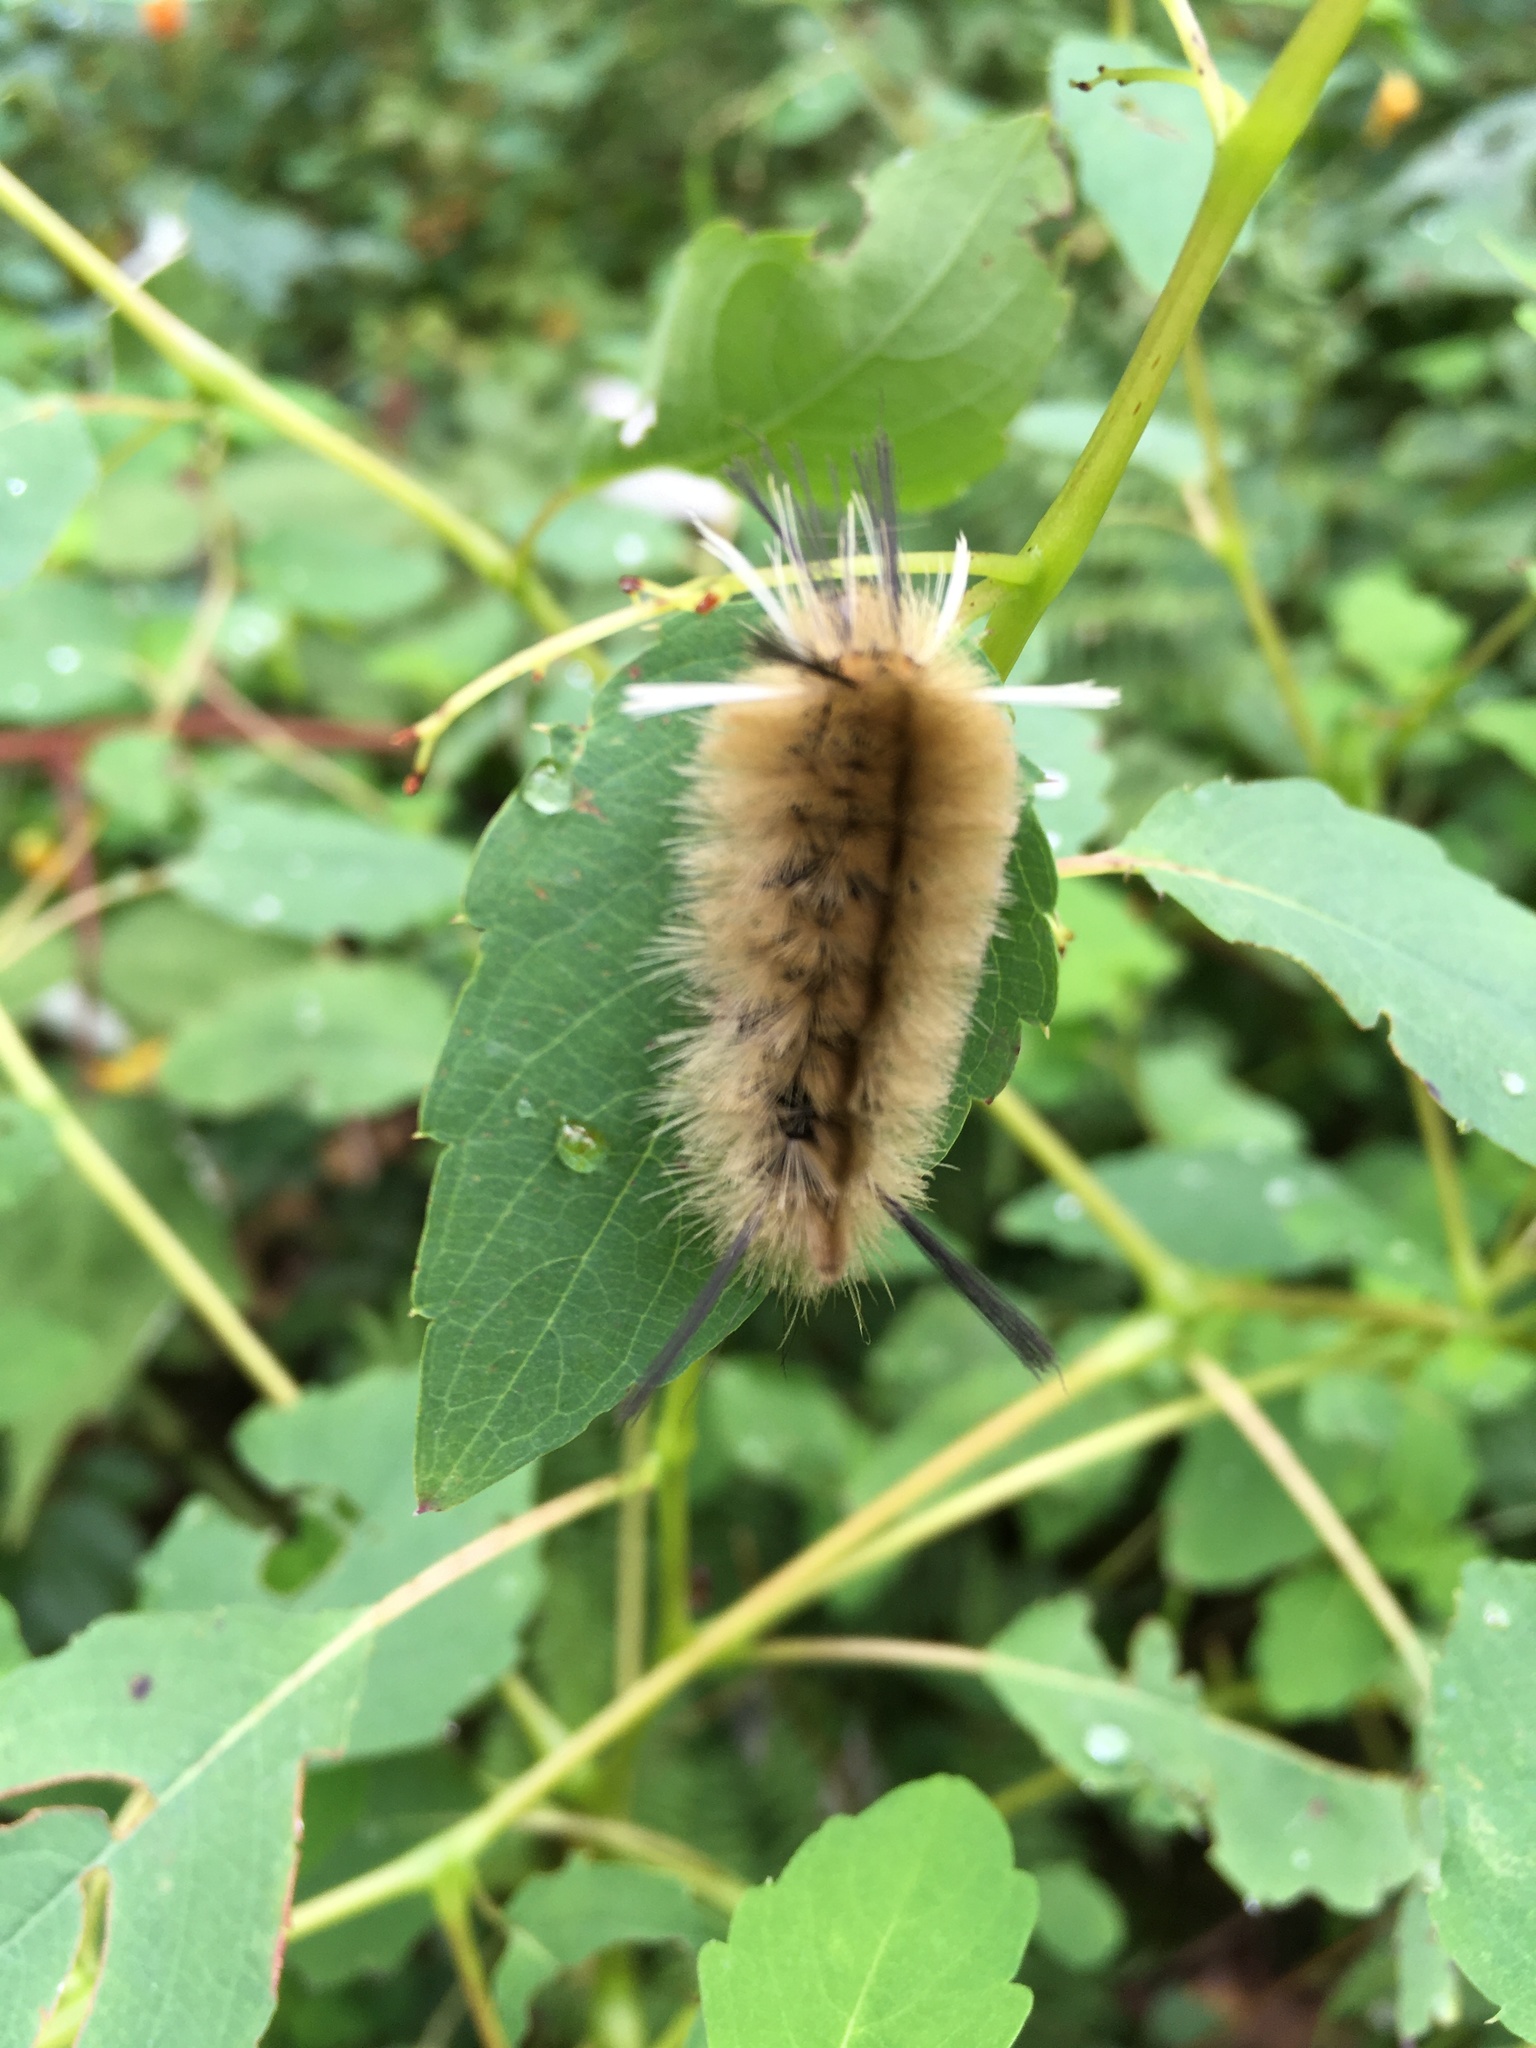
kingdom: Animalia
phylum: Arthropoda
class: Insecta
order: Lepidoptera
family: Erebidae
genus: Halysidota
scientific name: Halysidota tessellaris
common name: Banded tussock moth
